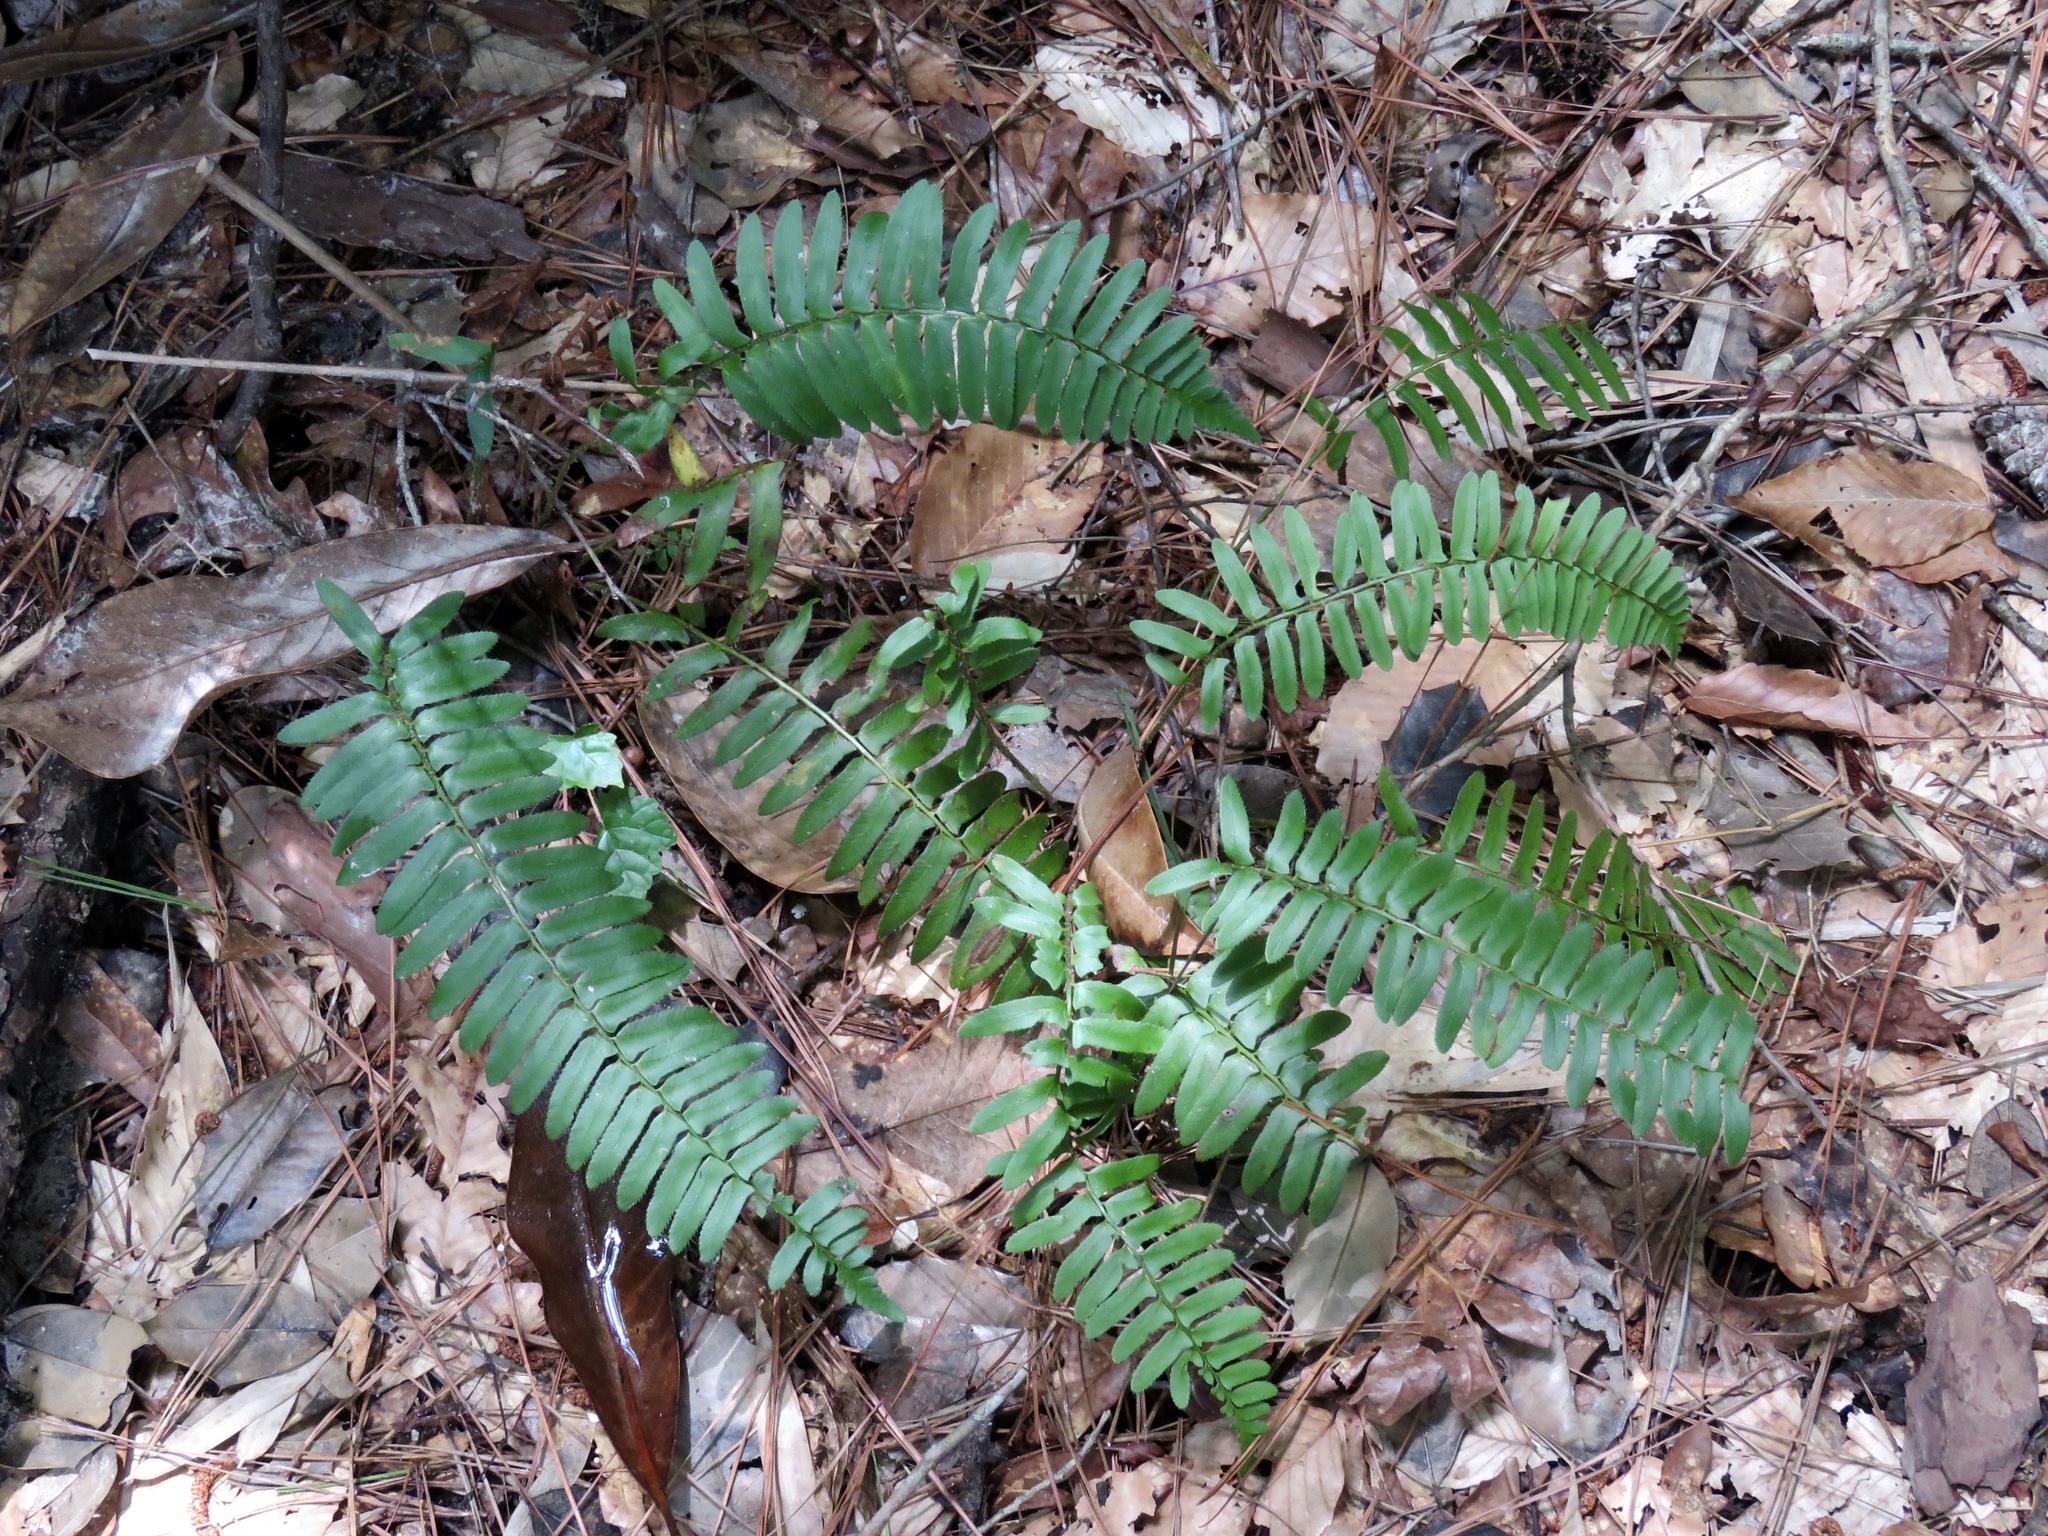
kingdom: Plantae
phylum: Tracheophyta
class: Polypodiopsida
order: Polypodiales
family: Dryopteridaceae
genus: Polystichum
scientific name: Polystichum acrostichoides
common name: Christmas fern
